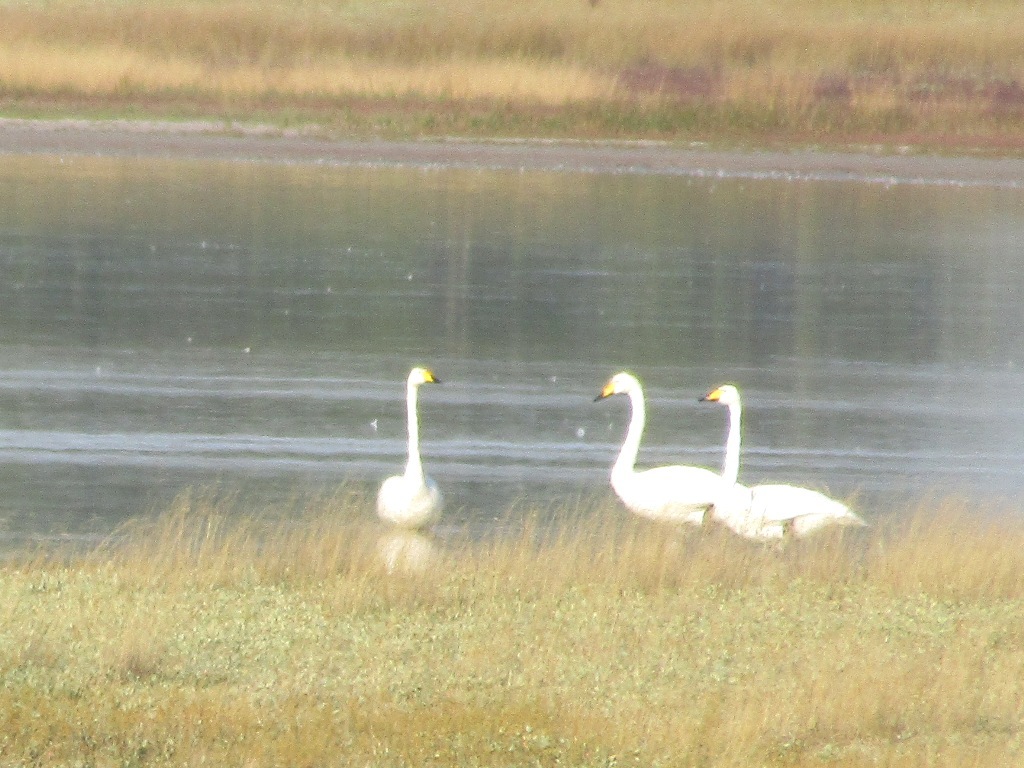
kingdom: Animalia
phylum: Chordata
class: Aves
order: Anseriformes
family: Anatidae
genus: Cygnus
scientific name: Cygnus cygnus
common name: Whooper swan
